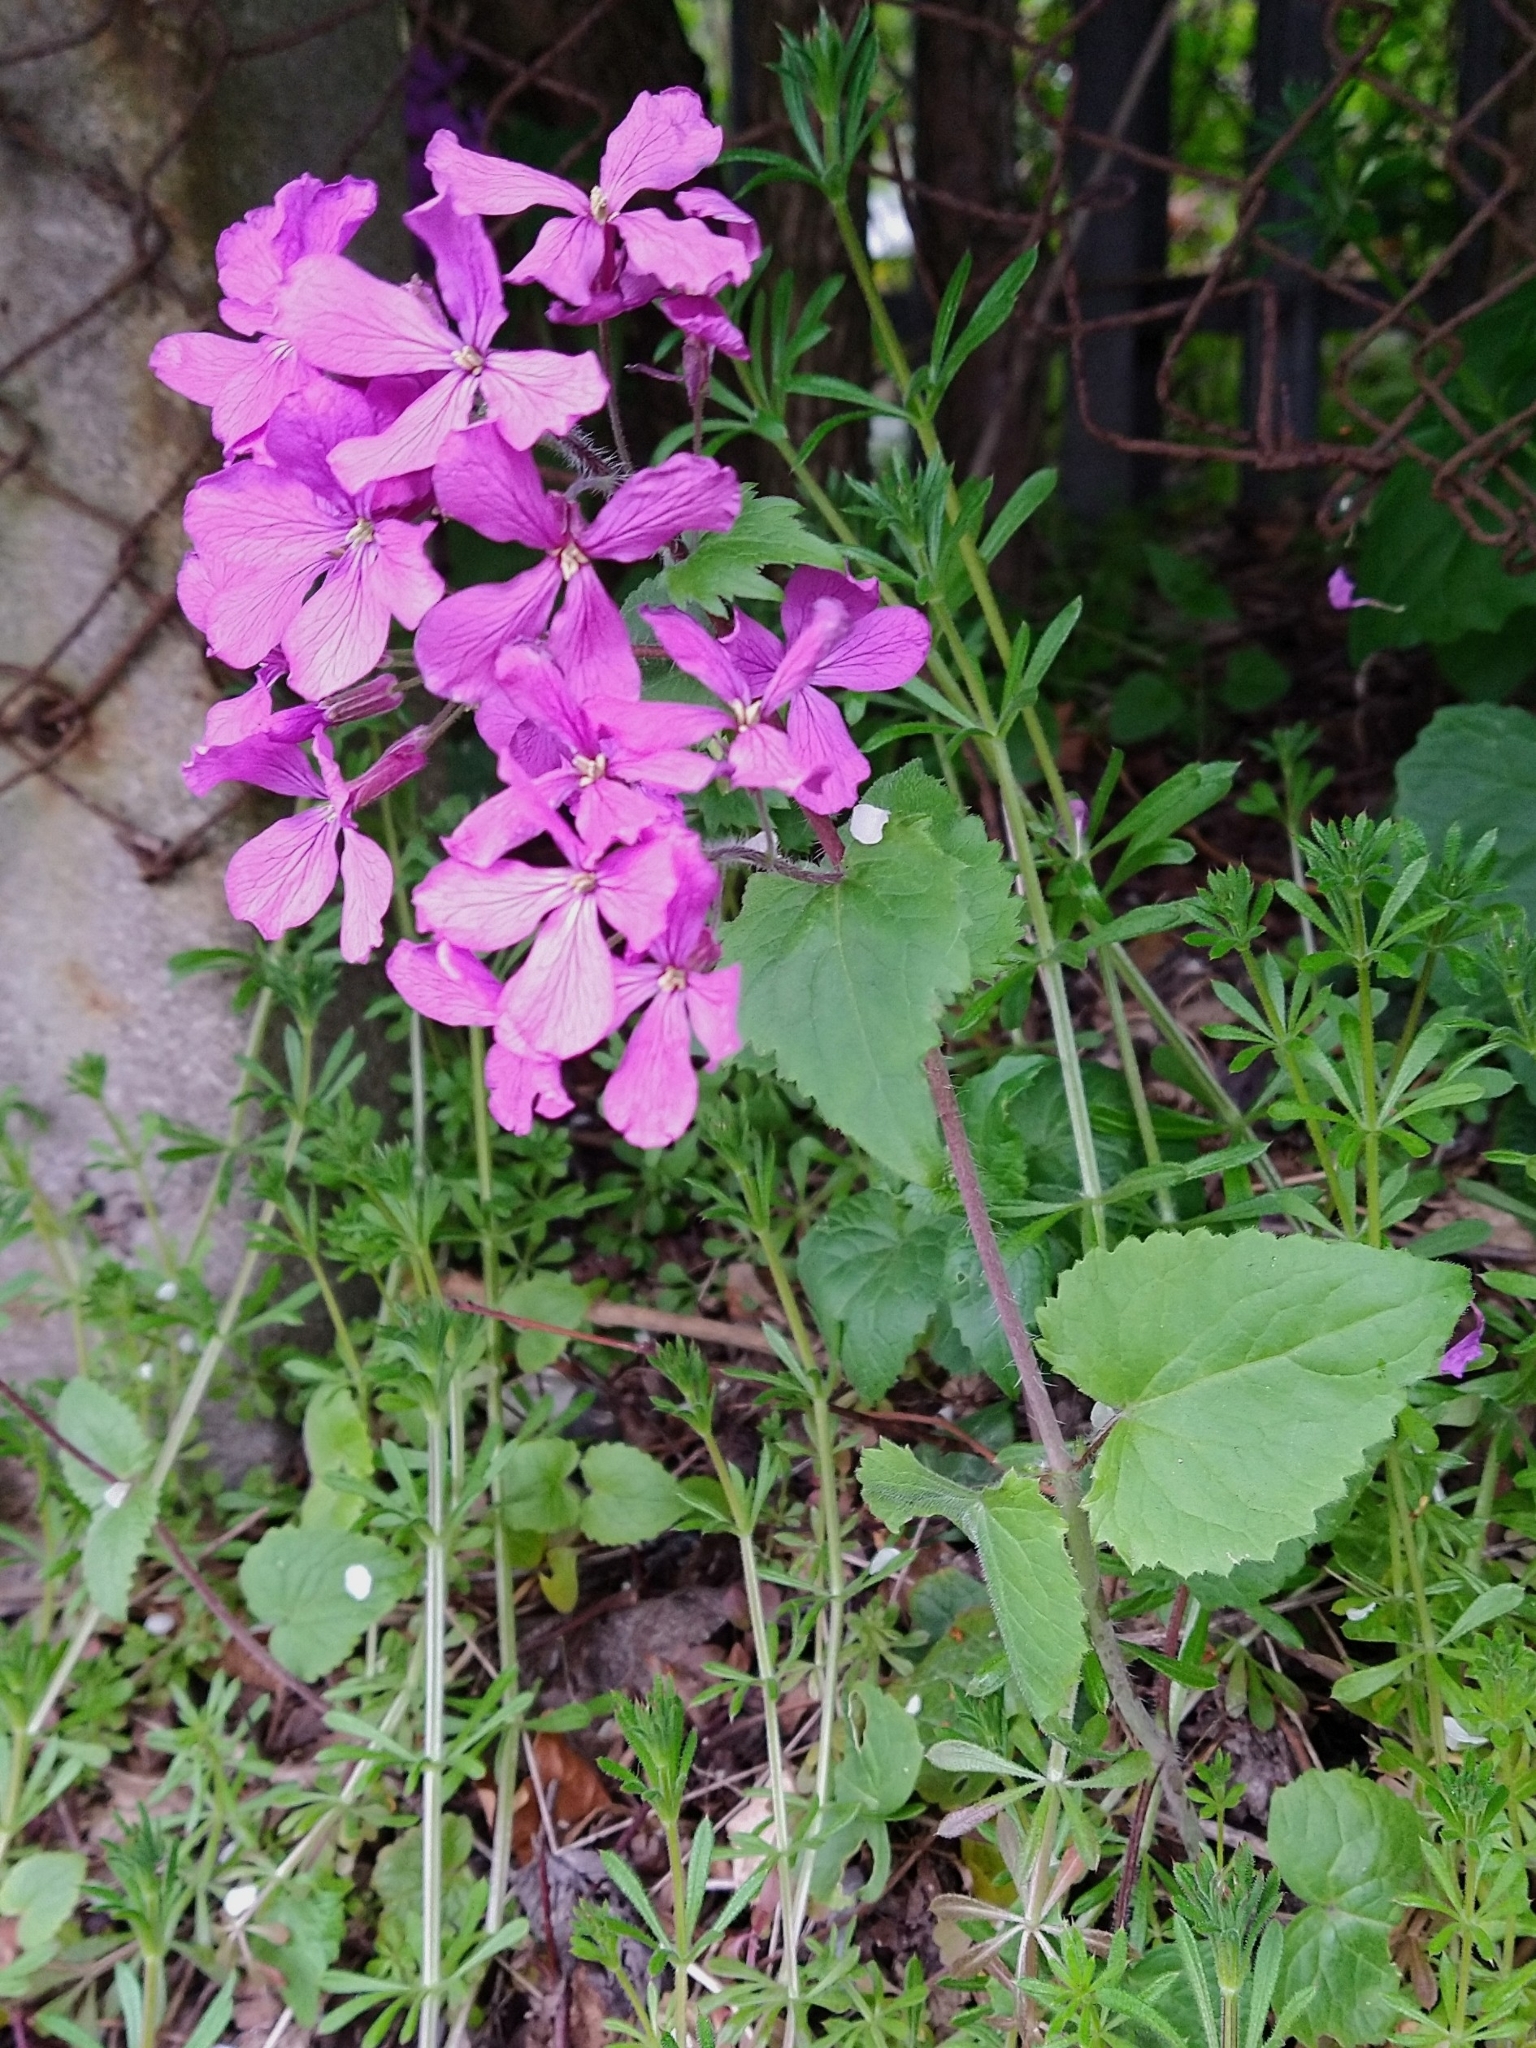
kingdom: Plantae
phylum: Tracheophyta
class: Magnoliopsida
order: Brassicales
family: Brassicaceae
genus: Lunaria
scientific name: Lunaria annua
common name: Honesty
